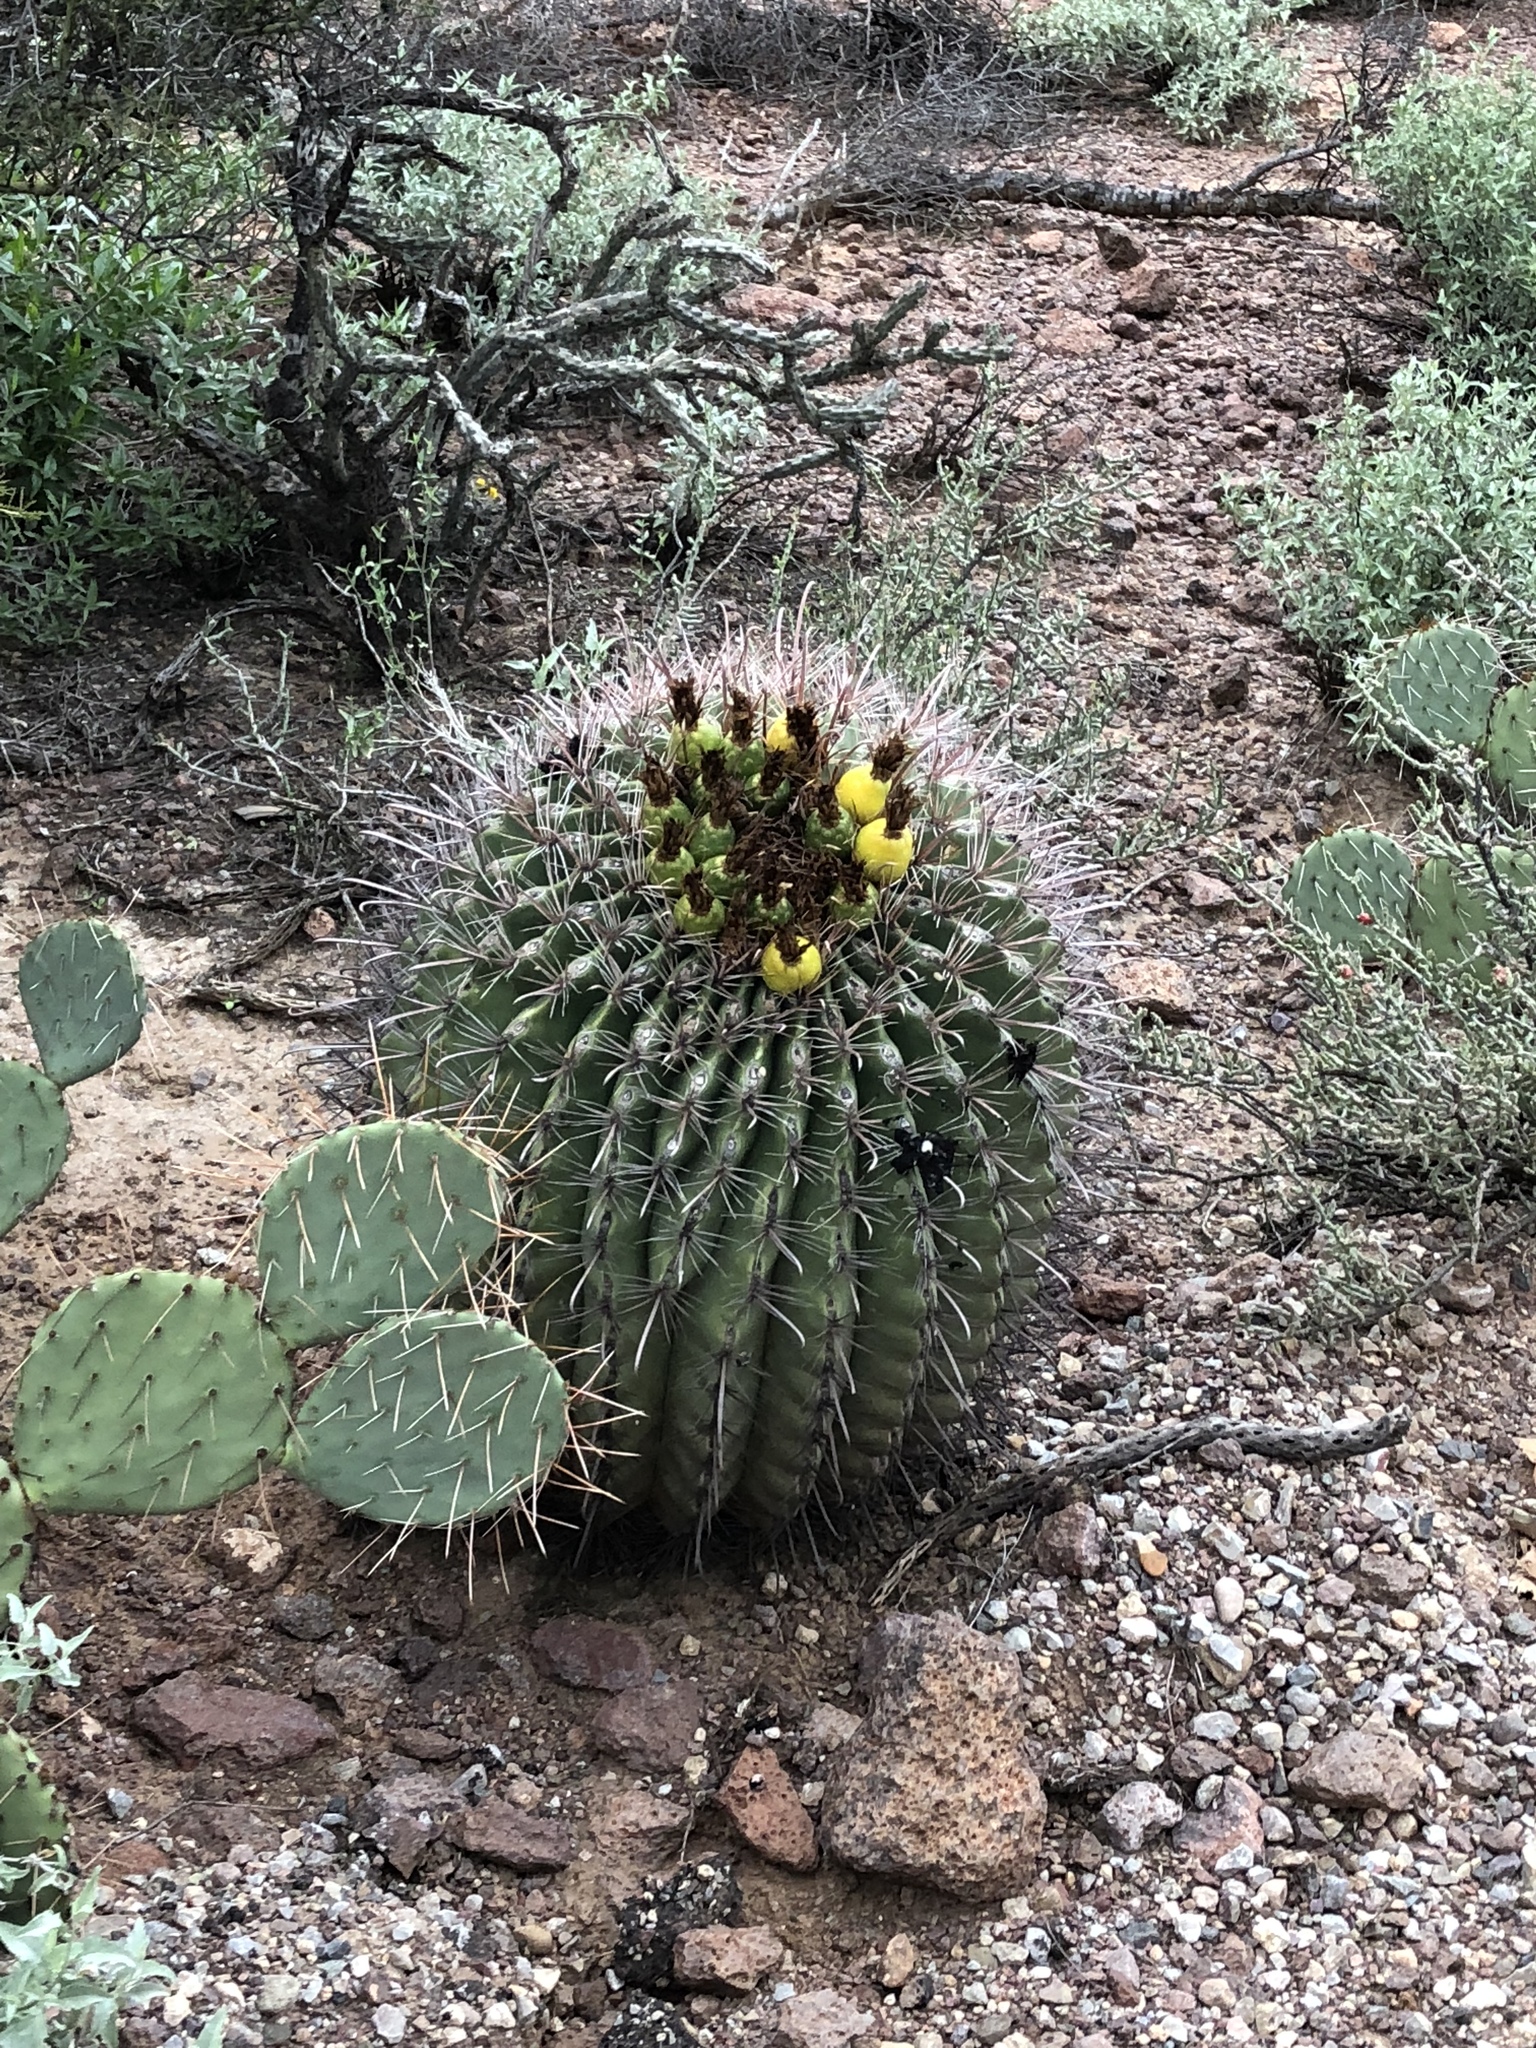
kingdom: Plantae
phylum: Tracheophyta
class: Magnoliopsida
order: Caryophyllales
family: Cactaceae
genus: Ferocactus
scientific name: Ferocactus wislizeni
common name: Candy barrel cactus
